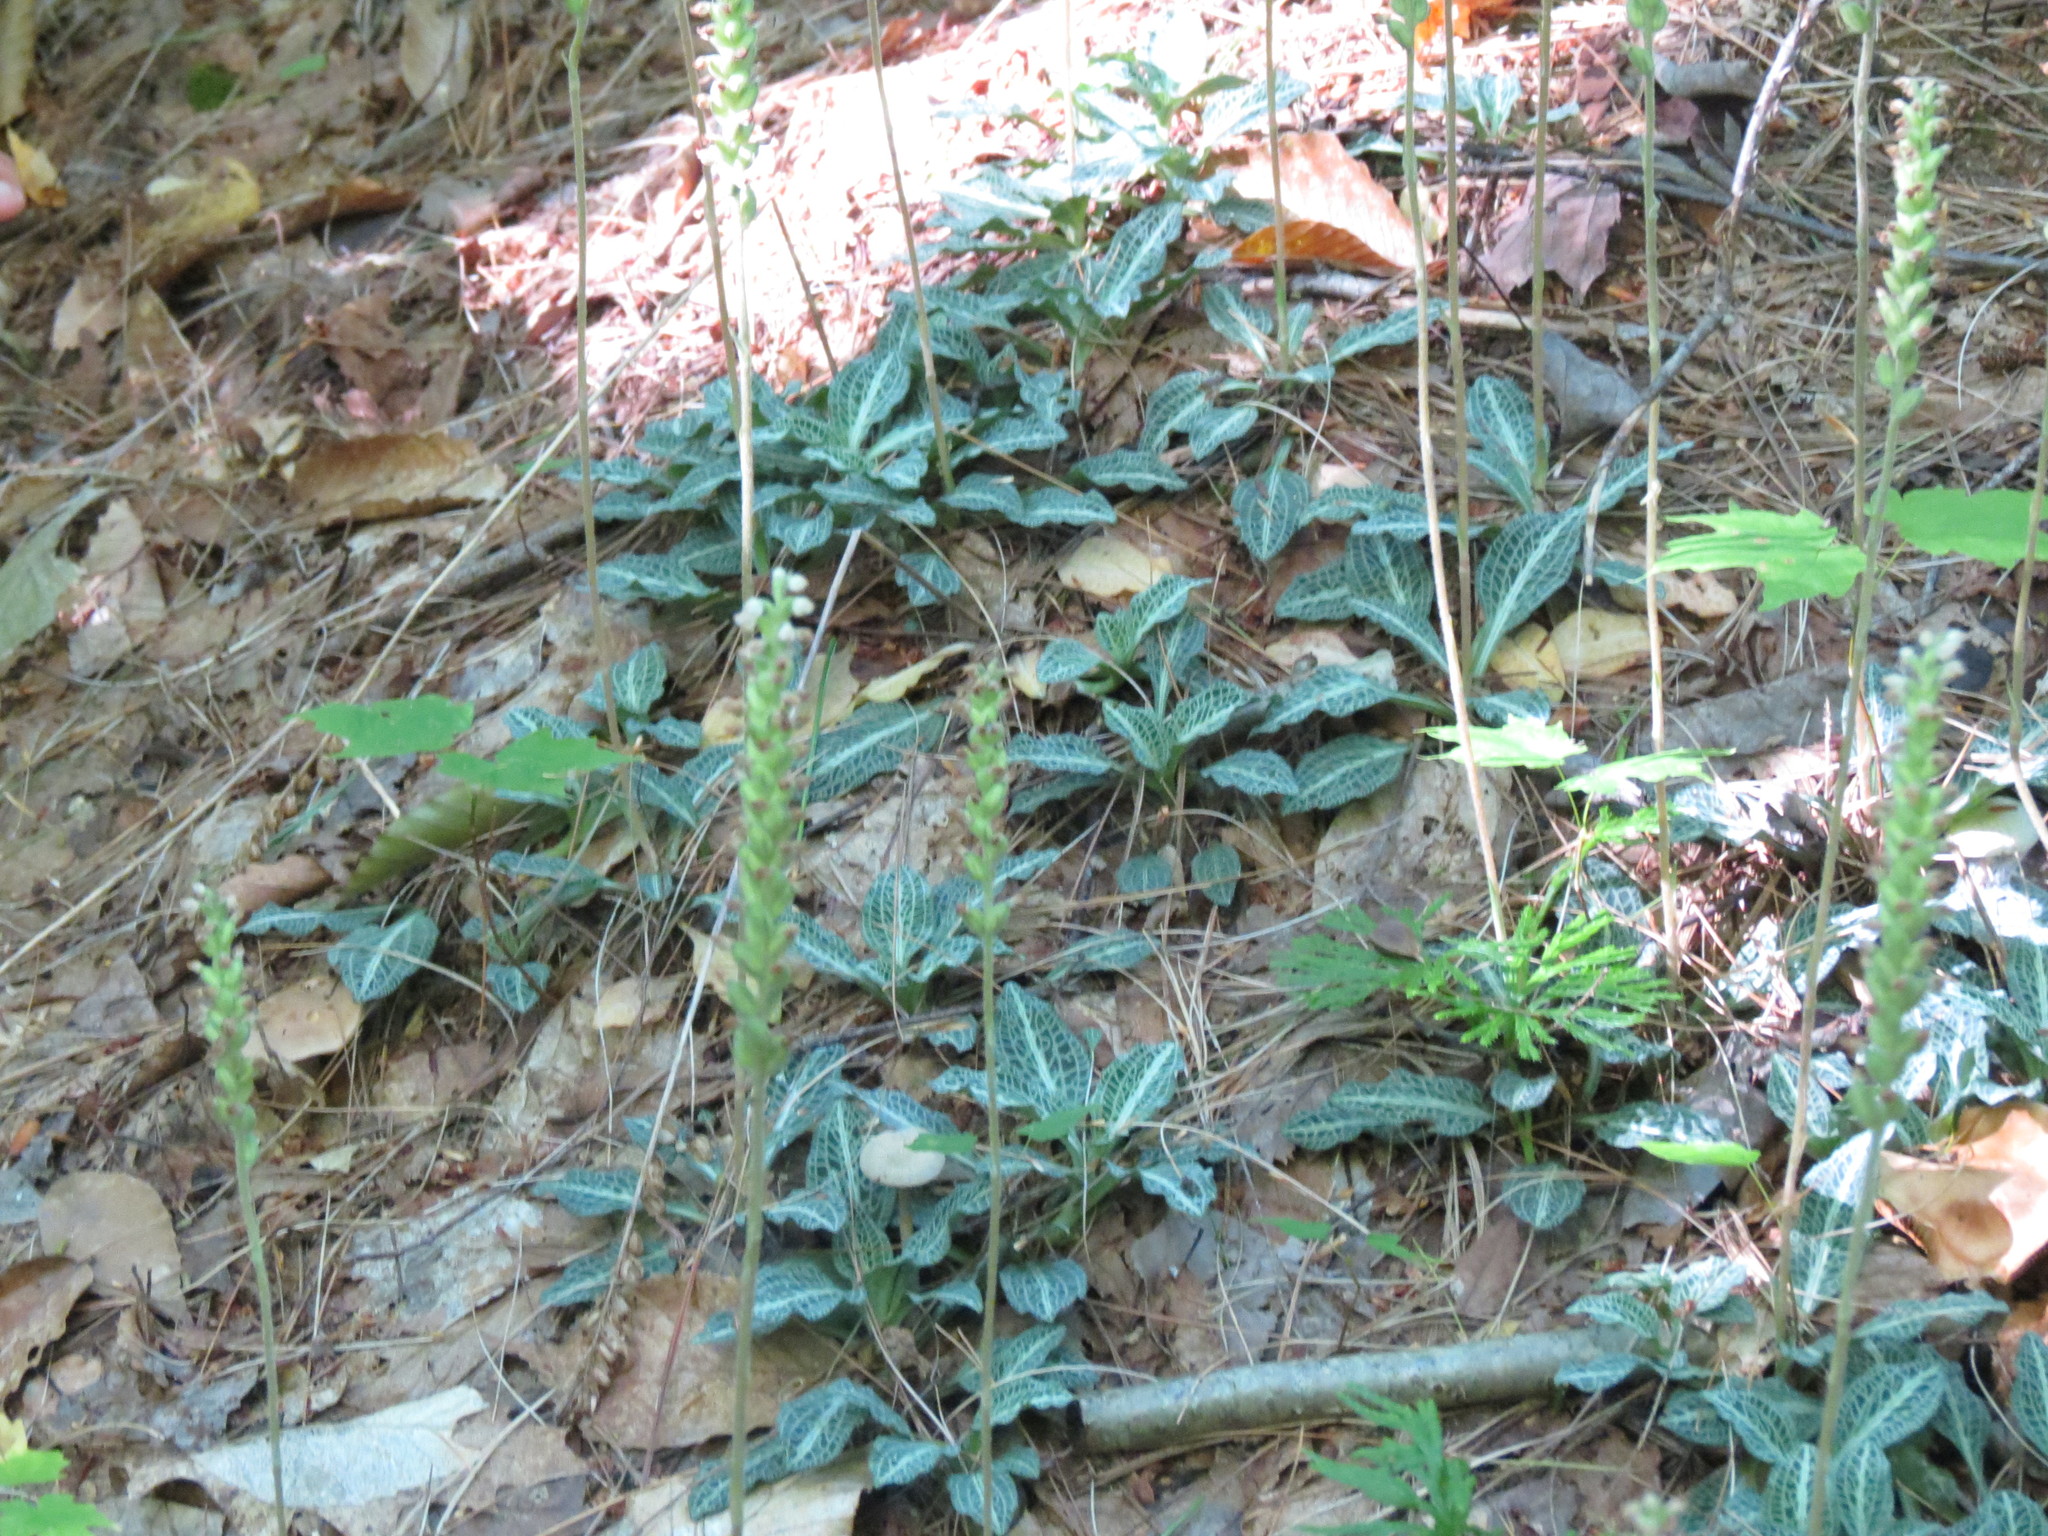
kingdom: Plantae
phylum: Tracheophyta
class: Liliopsida
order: Asparagales
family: Orchidaceae
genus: Goodyera
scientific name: Goodyera pubescens
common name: Downy rattlesnake-plantain
